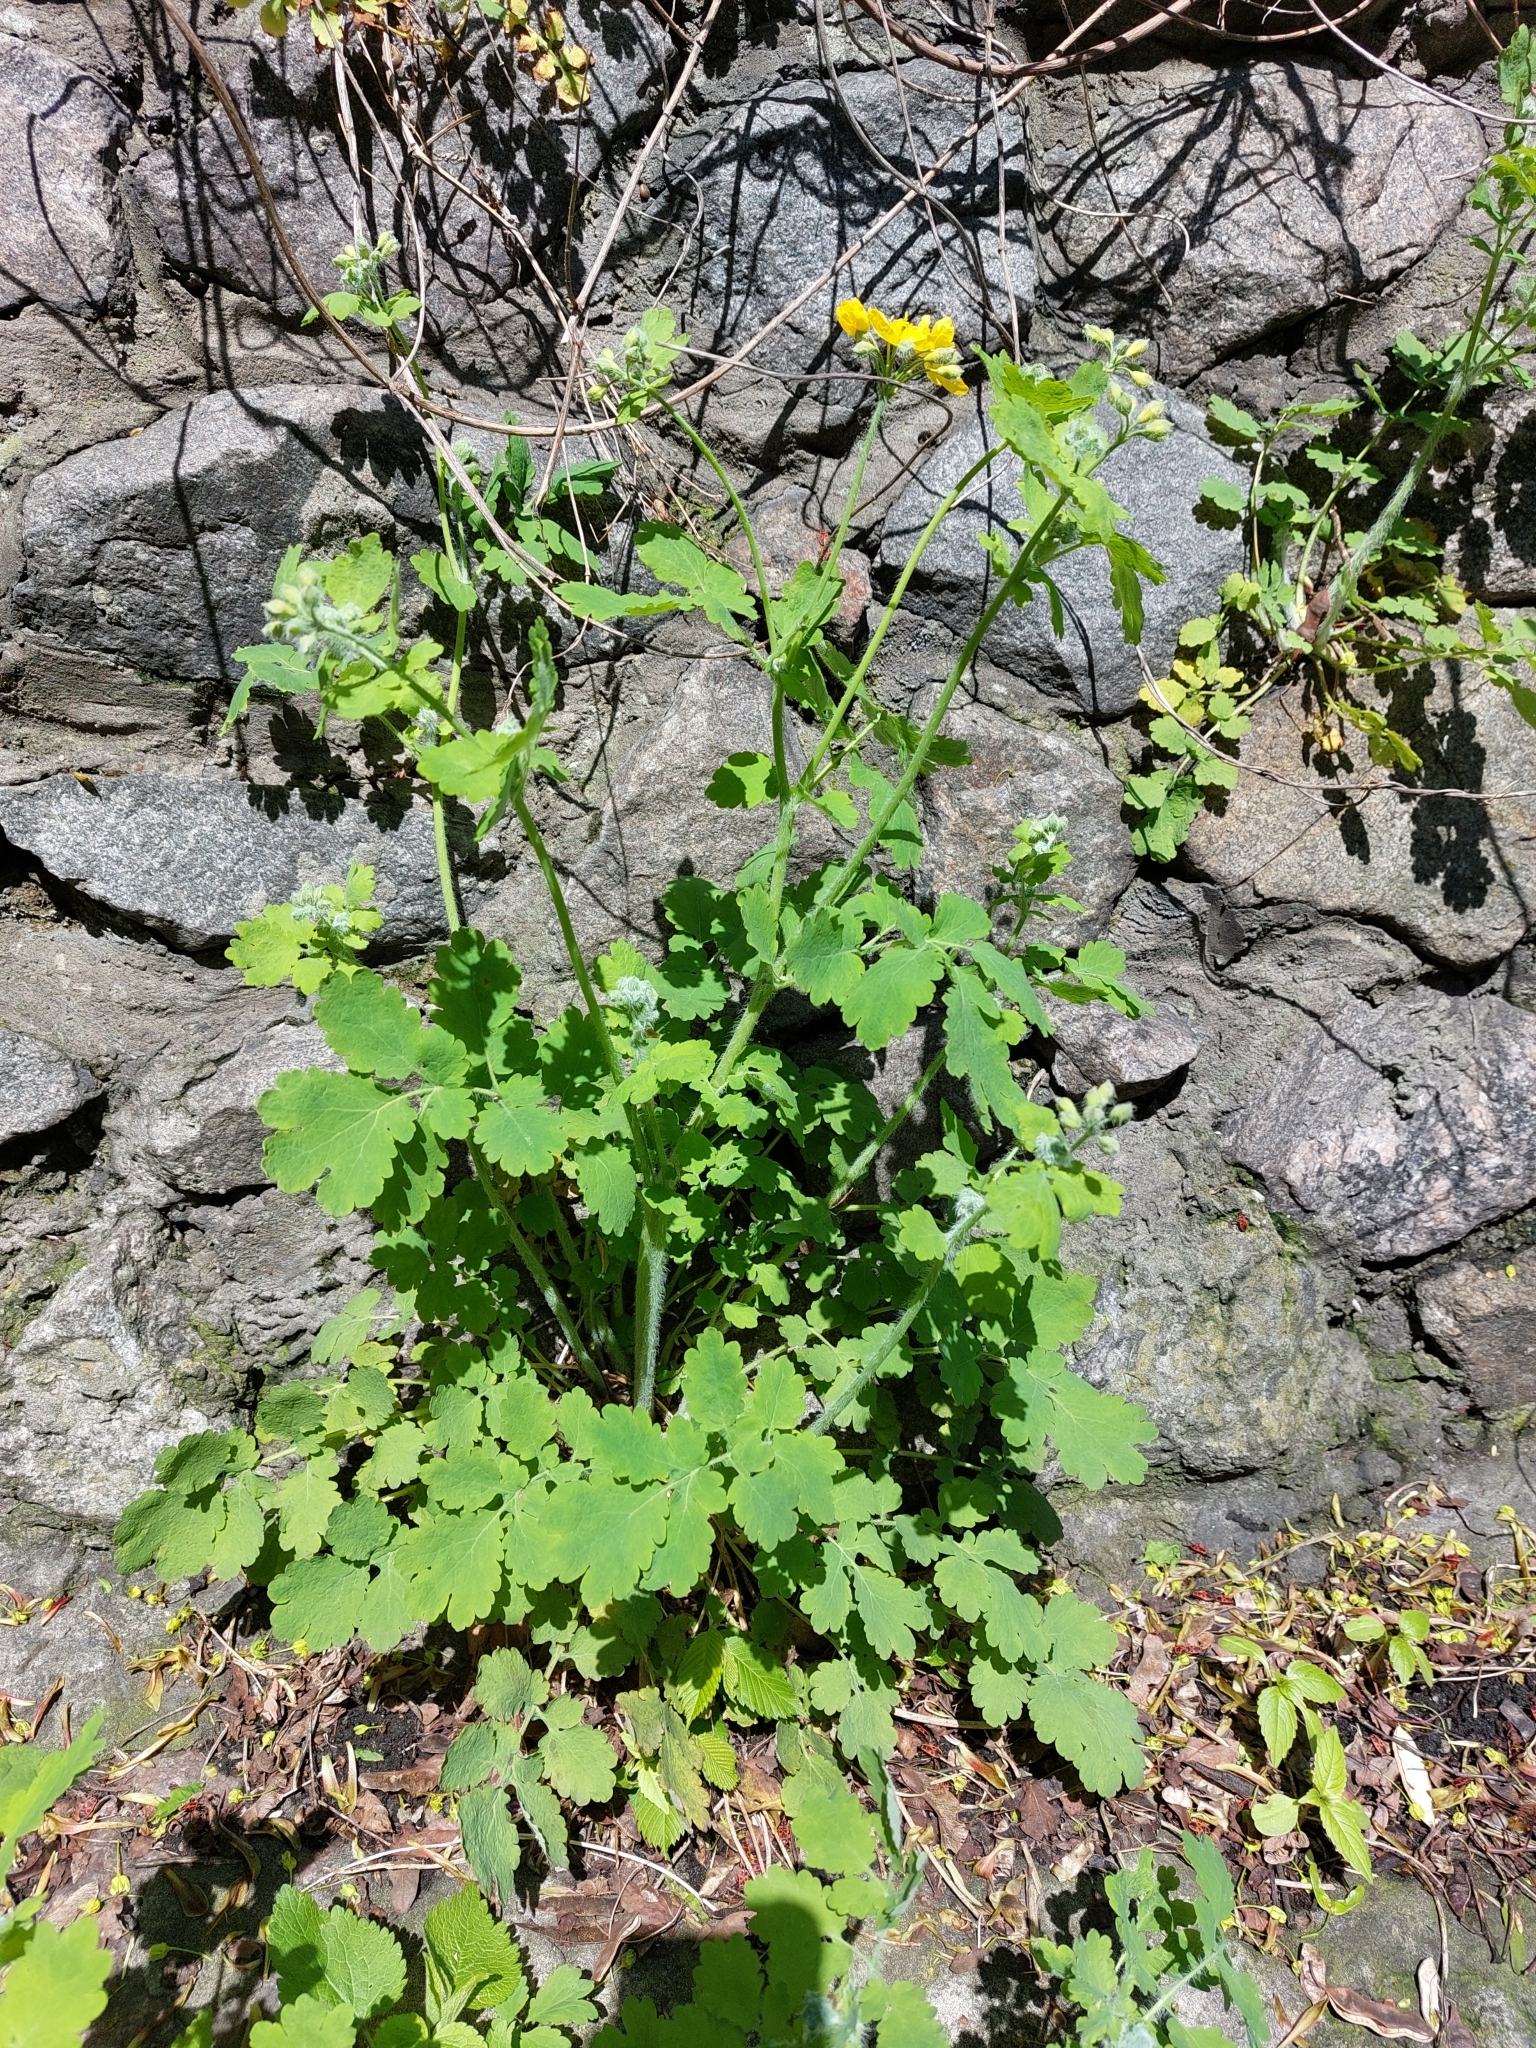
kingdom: Plantae
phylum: Tracheophyta
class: Magnoliopsida
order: Ranunculales
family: Papaveraceae
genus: Chelidonium
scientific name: Chelidonium majus
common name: Greater celandine
